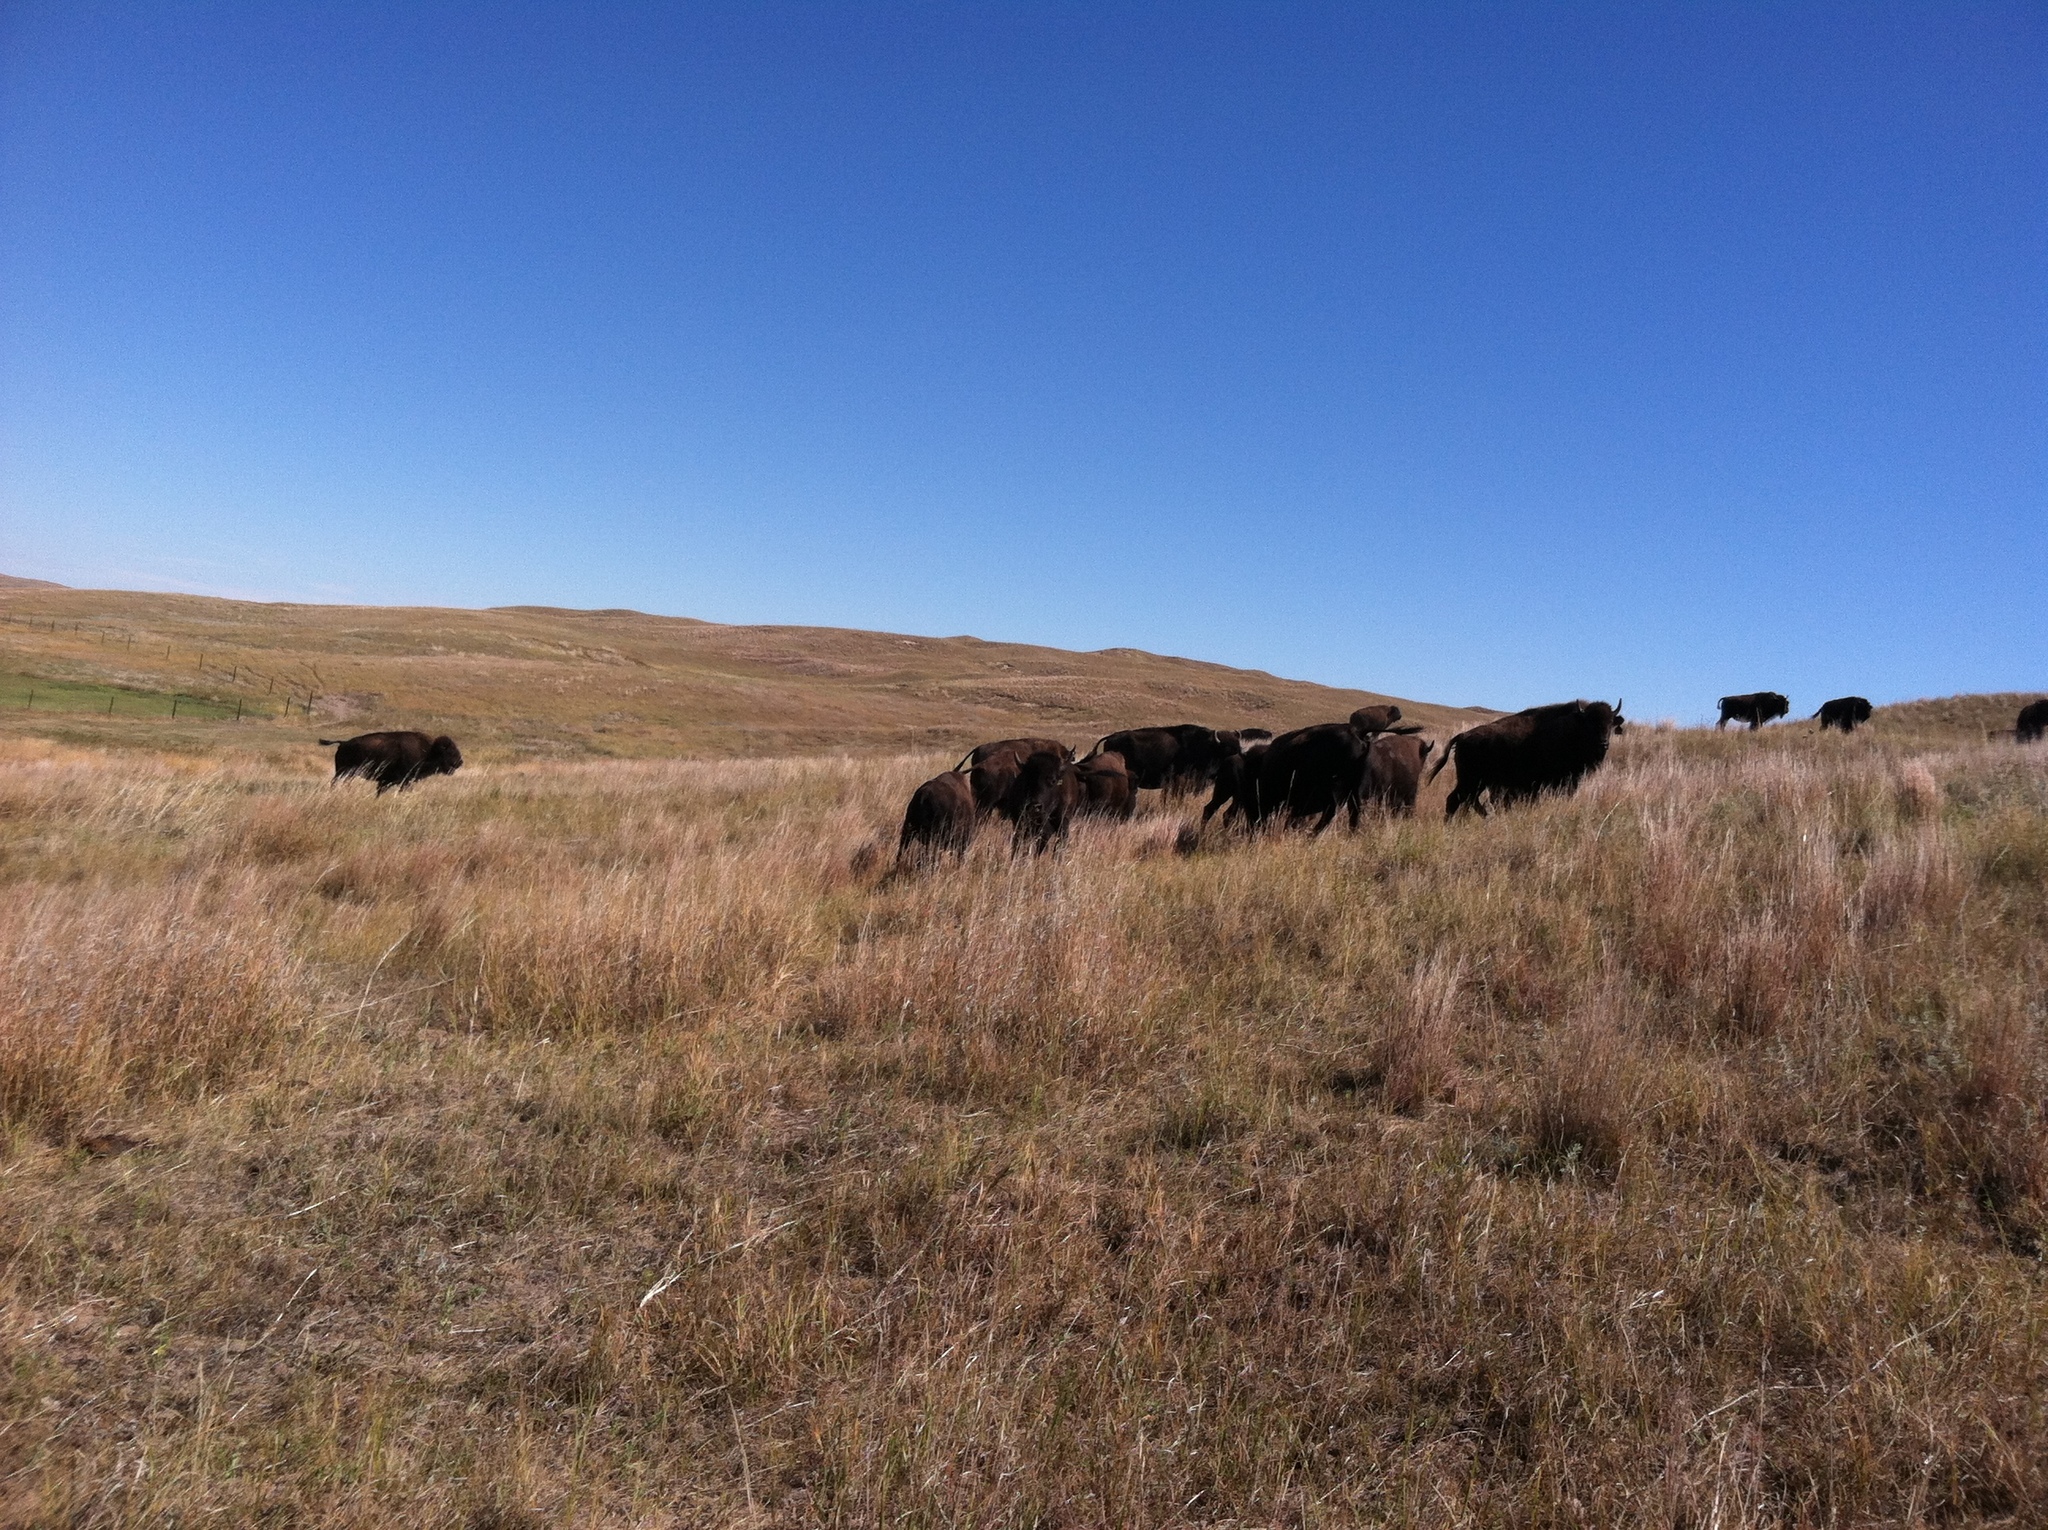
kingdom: Animalia
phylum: Chordata
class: Mammalia
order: Artiodactyla
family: Bovidae
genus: Bison
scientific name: Bison bison
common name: American bison
